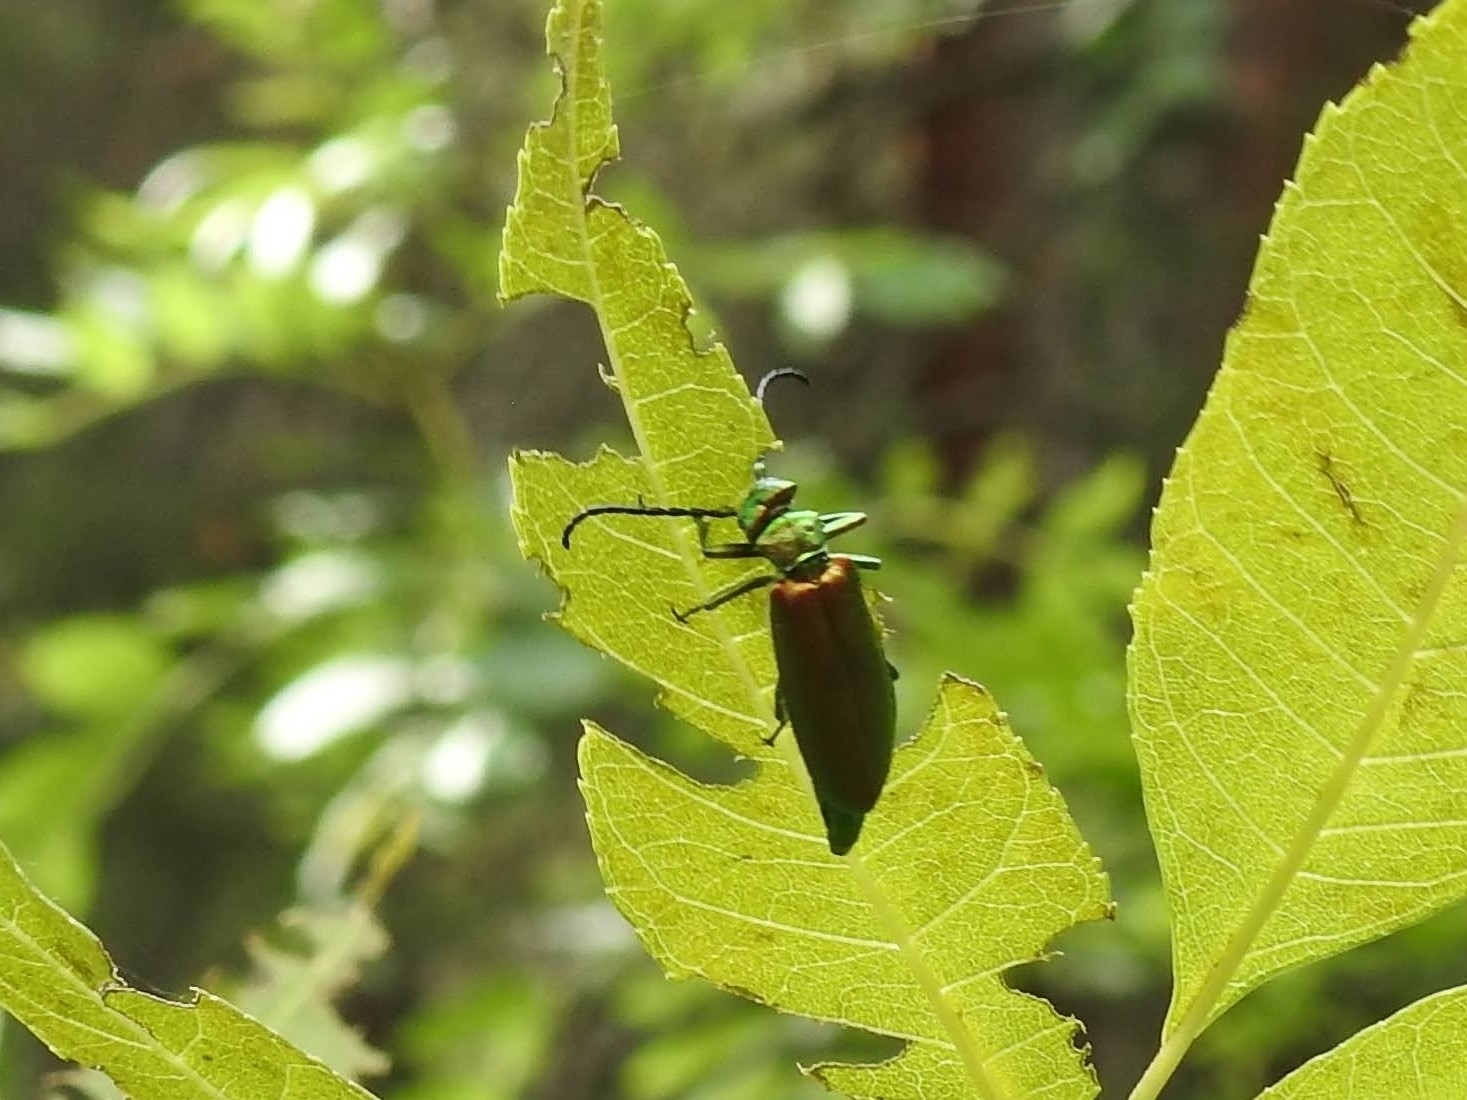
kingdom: Animalia
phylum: Arthropoda
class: Insecta
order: Coleoptera
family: Meloidae
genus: Lytta
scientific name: Lytta vesicatoria
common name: Spanish fly
